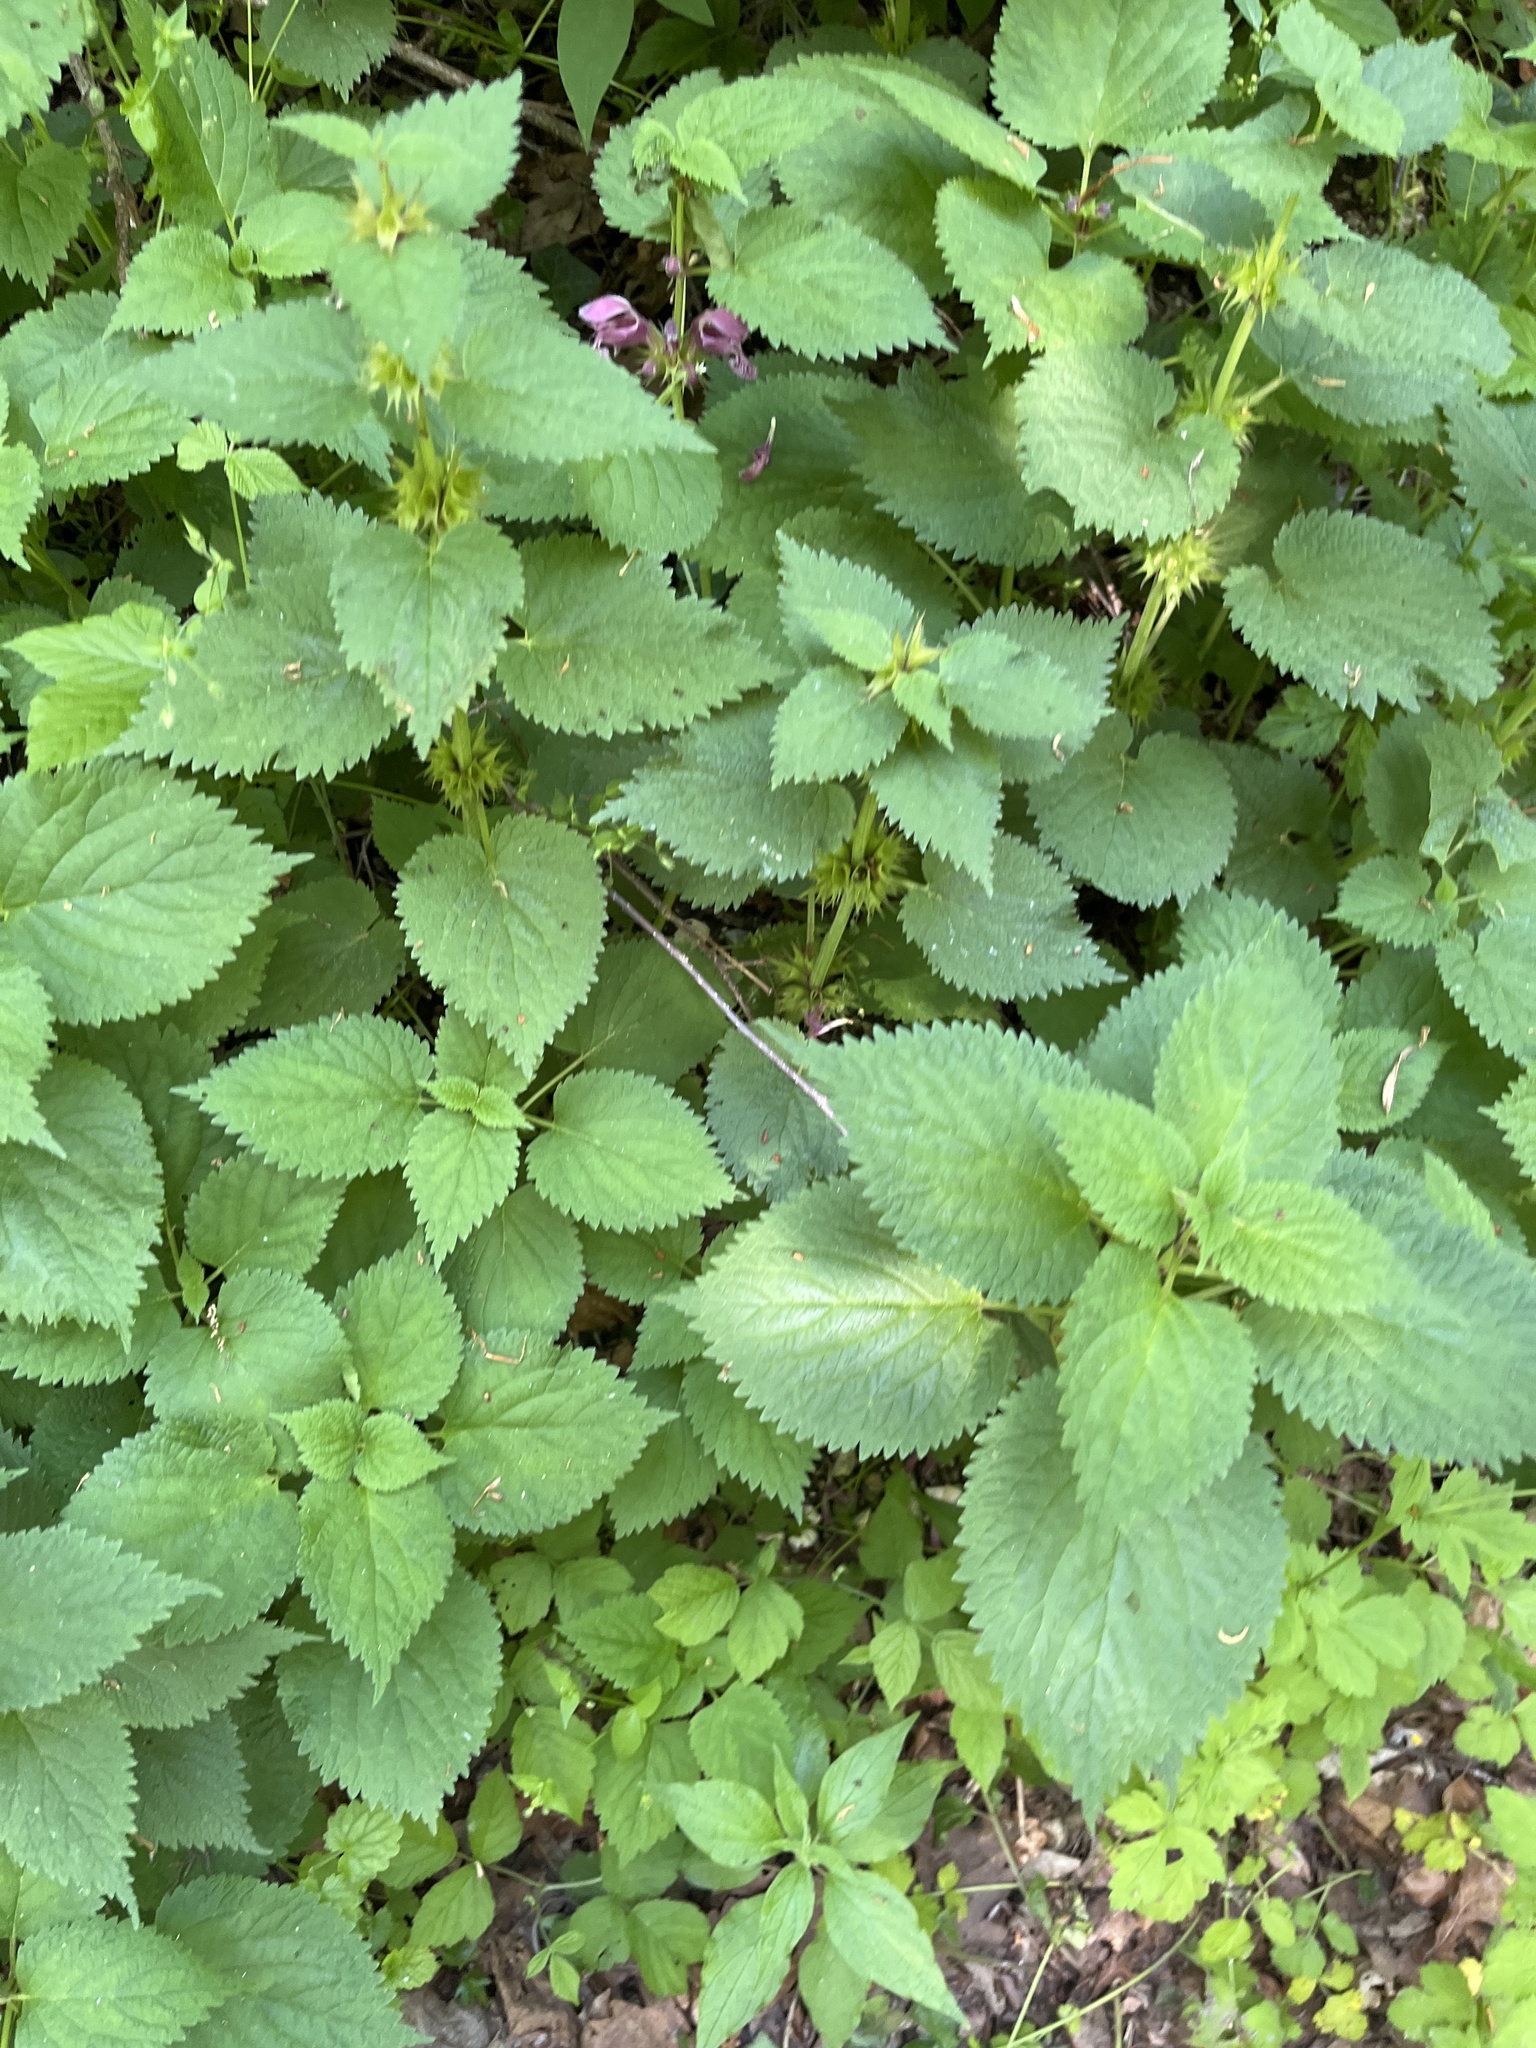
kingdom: Plantae
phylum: Tracheophyta
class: Magnoliopsida
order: Lamiales
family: Lamiaceae
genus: Lamium
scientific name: Lamium orvala
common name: Balm-leaved archangel
